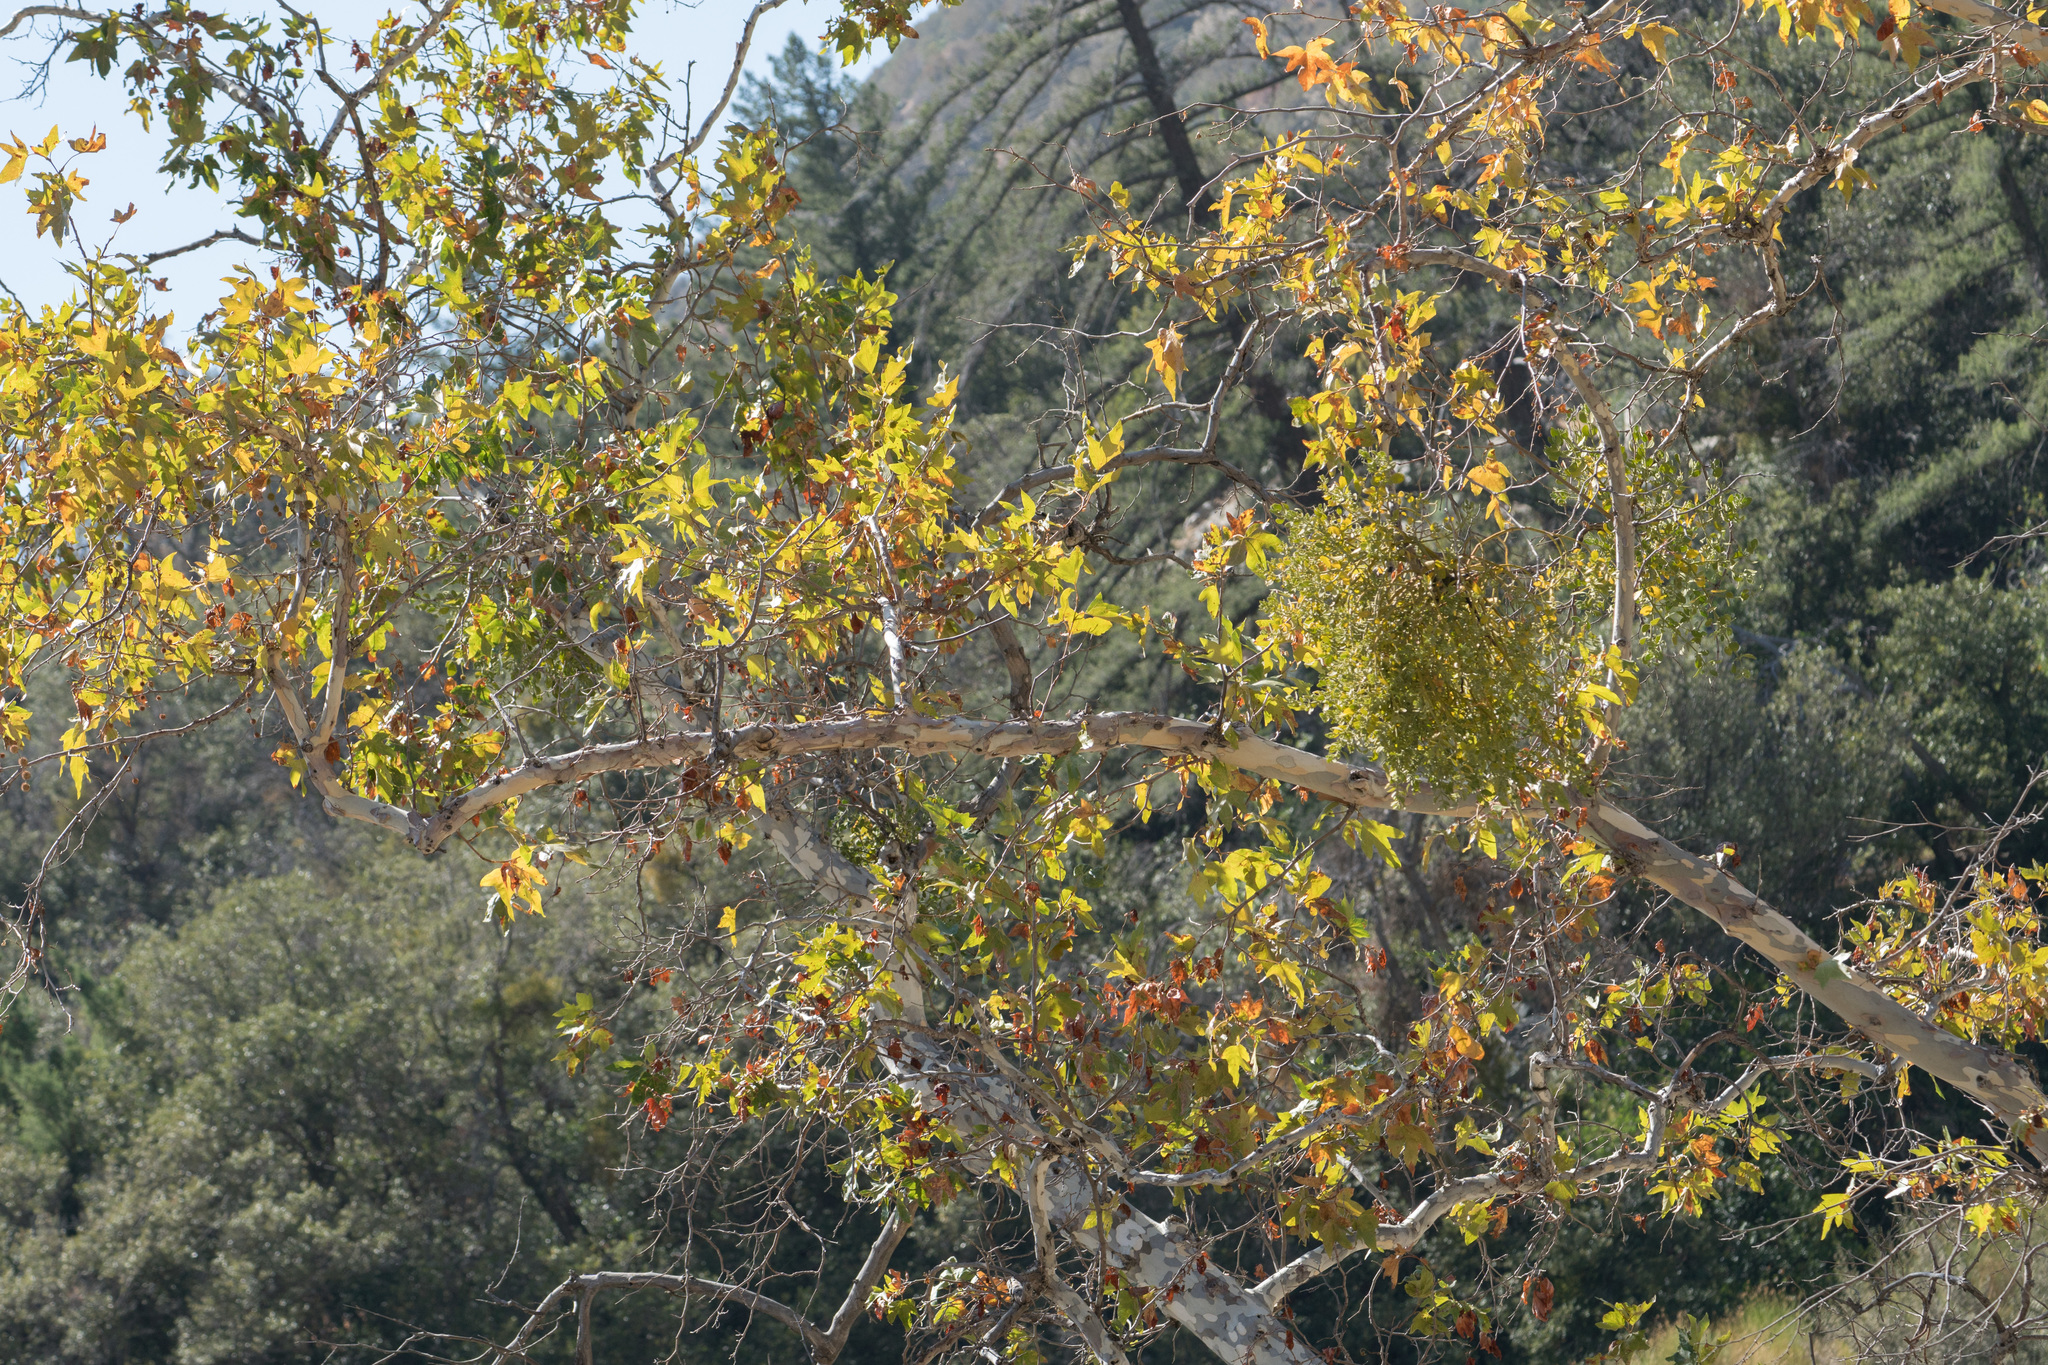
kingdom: Plantae
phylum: Tracheophyta
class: Magnoliopsida
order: Santalales
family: Viscaceae
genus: Phoradendron
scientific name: Phoradendron
